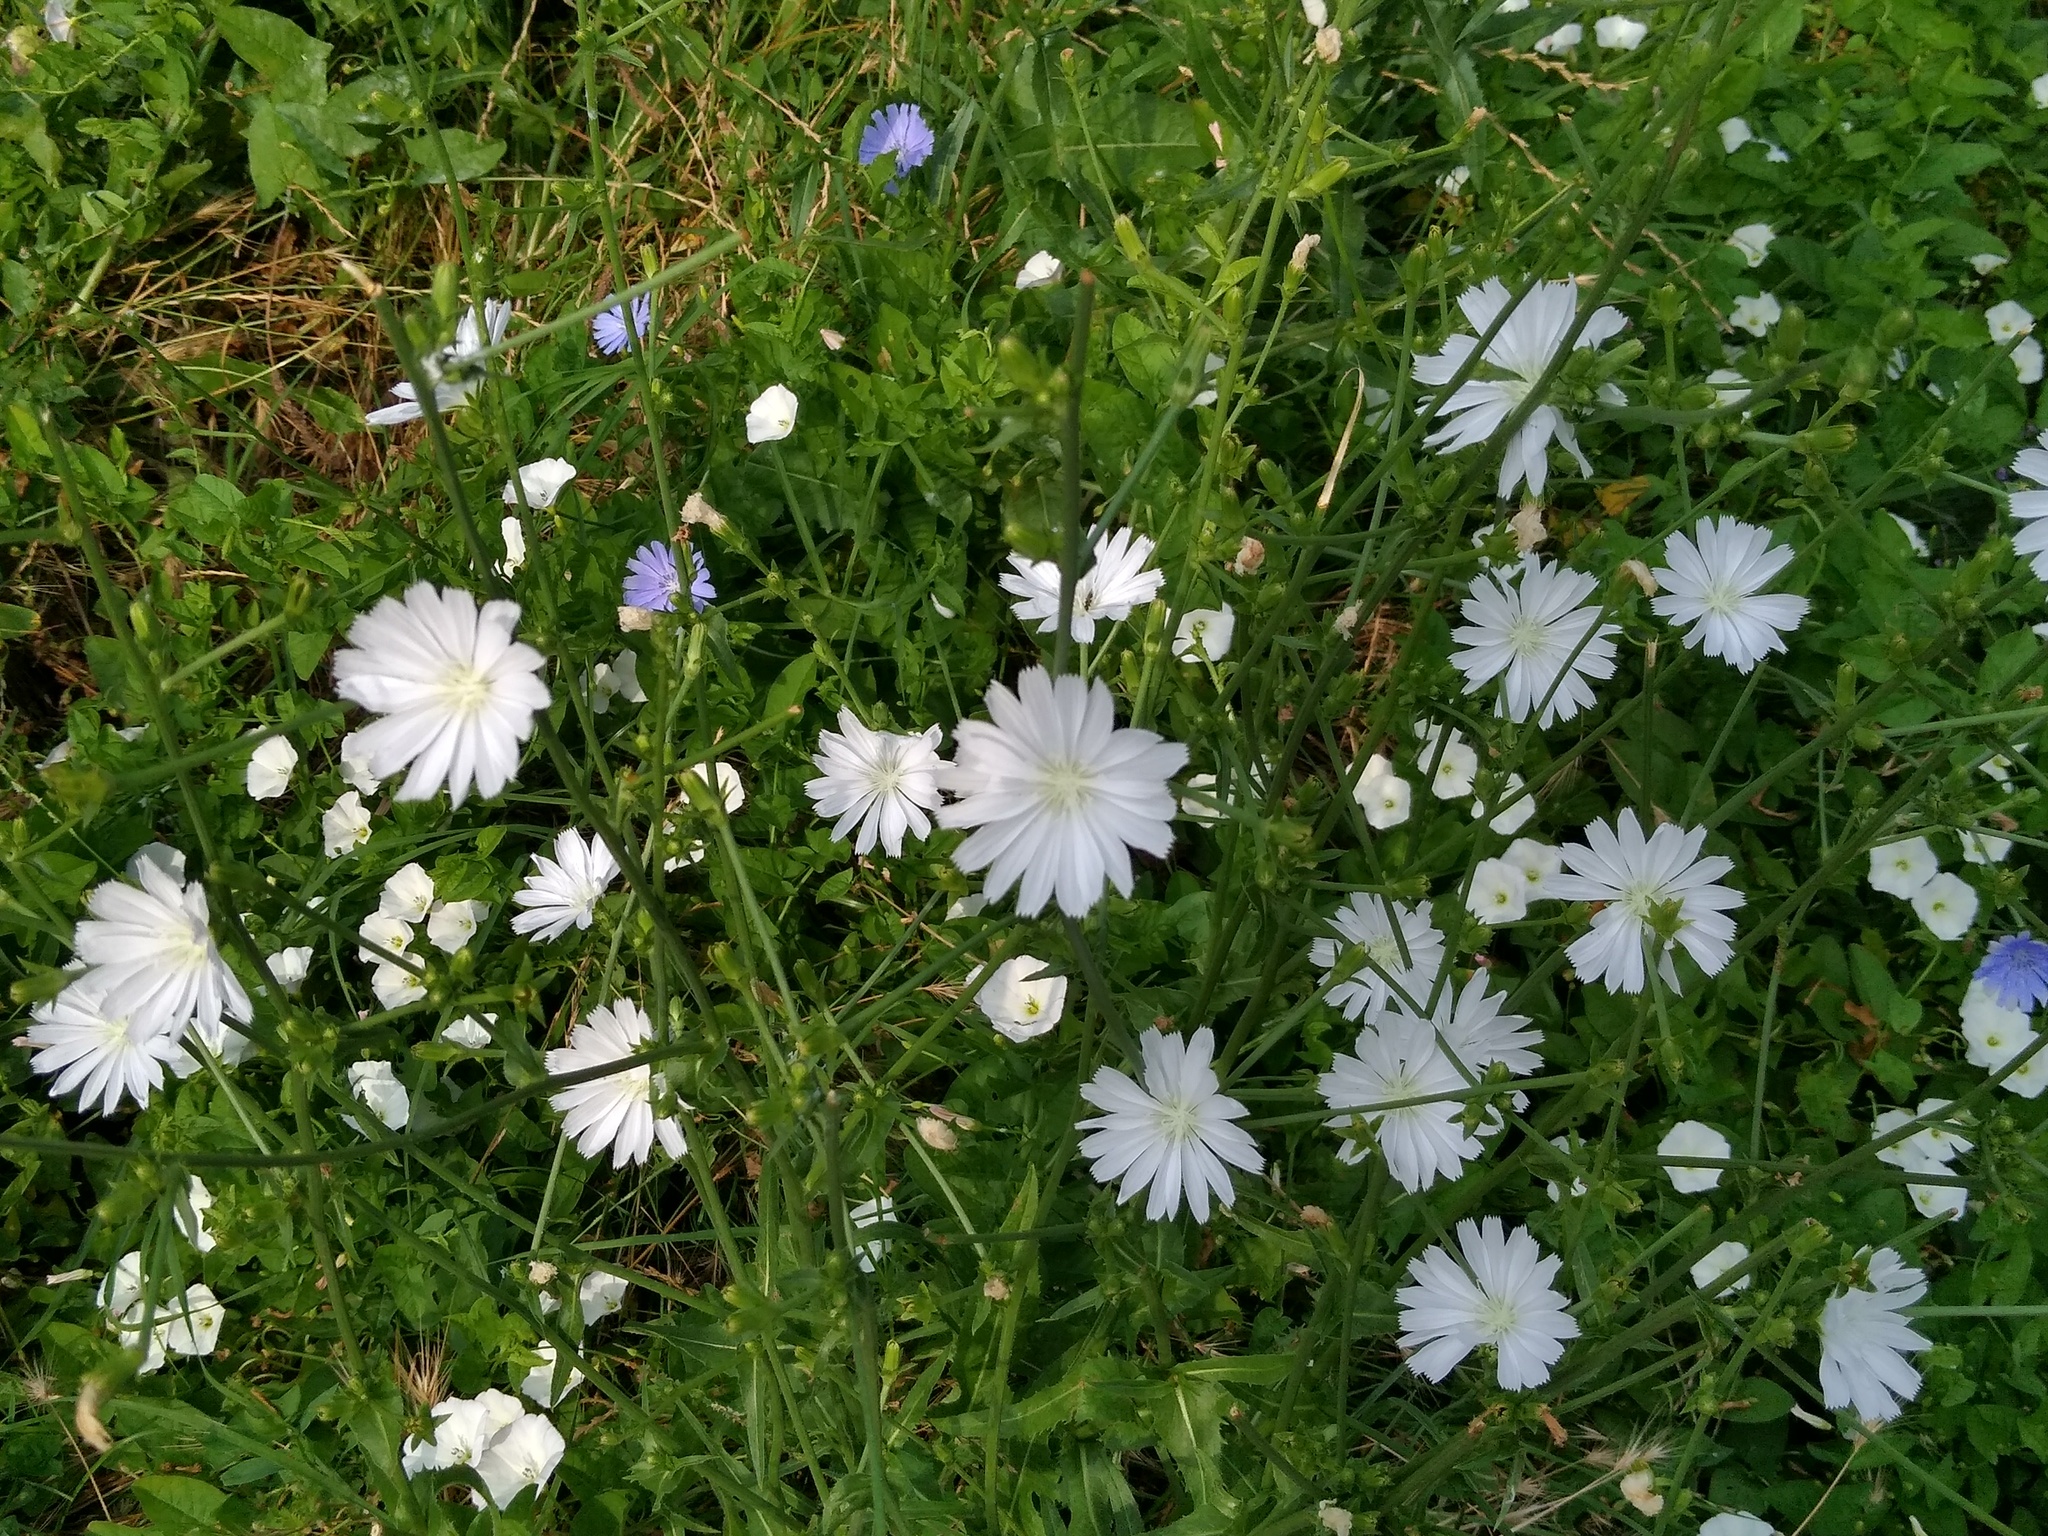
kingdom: Plantae
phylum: Tracheophyta
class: Magnoliopsida
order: Asterales
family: Asteraceae
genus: Cichorium
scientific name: Cichorium intybus
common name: Chicory
